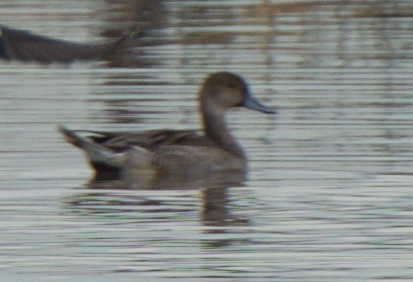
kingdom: Animalia
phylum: Chordata
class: Aves
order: Anseriformes
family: Anatidae
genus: Anas
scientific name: Anas acuta
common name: Northern pintail
